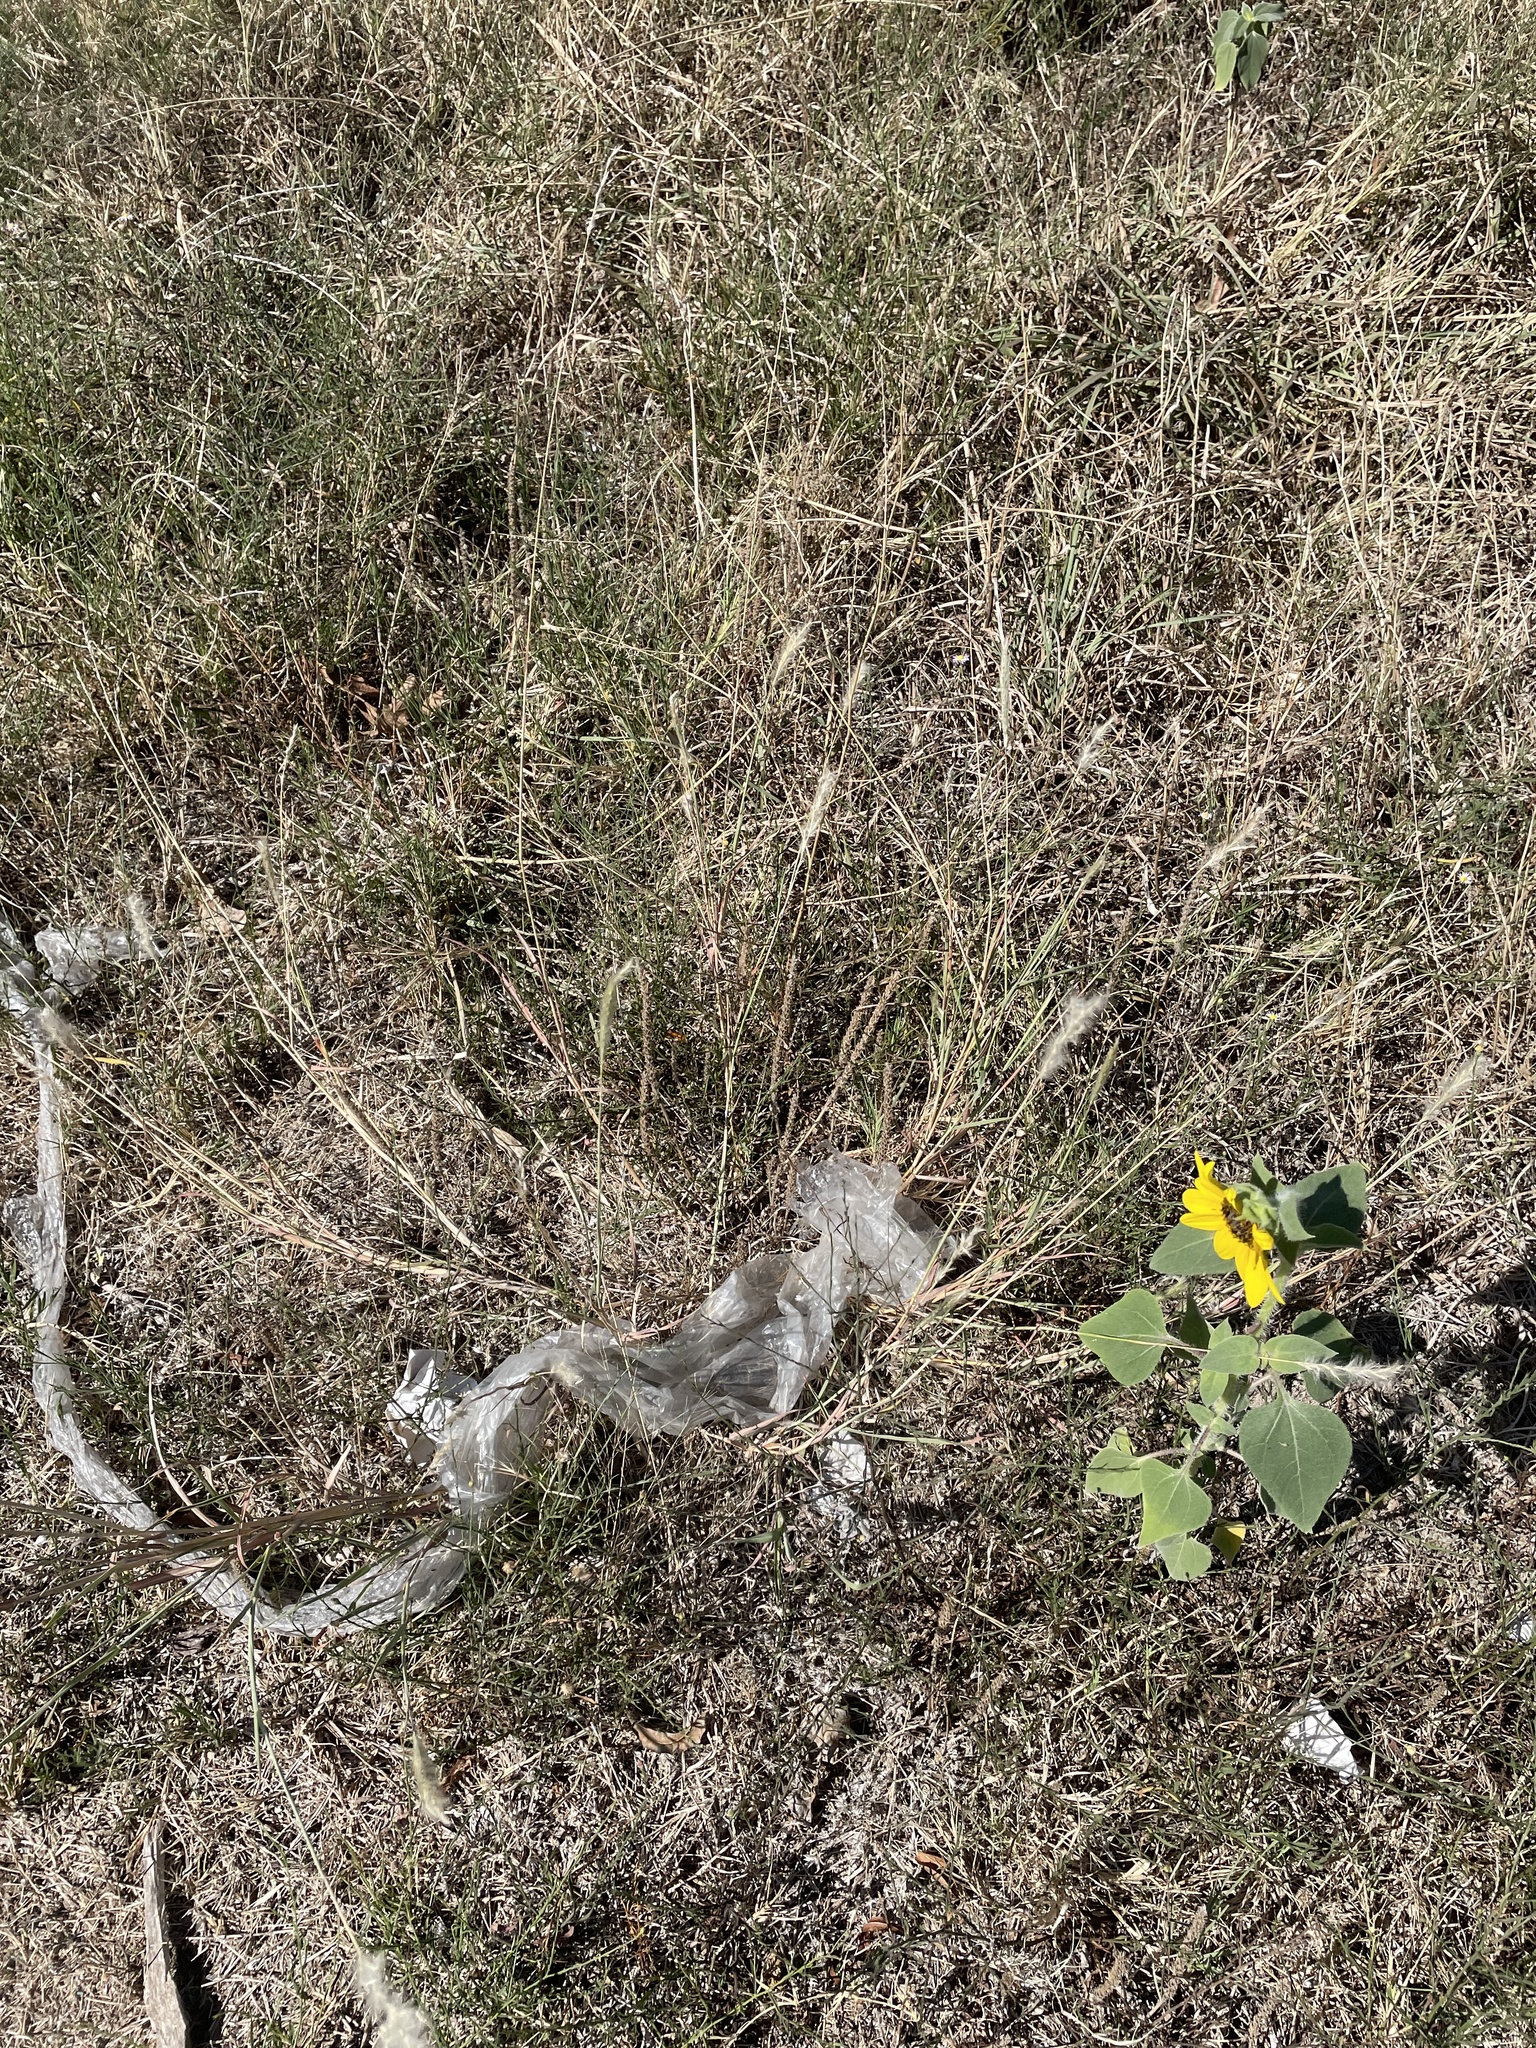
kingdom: Plantae
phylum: Tracheophyta
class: Liliopsida
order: Poales
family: Poaceae
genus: Bothriochloa
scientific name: Bothriochloa torreyana
